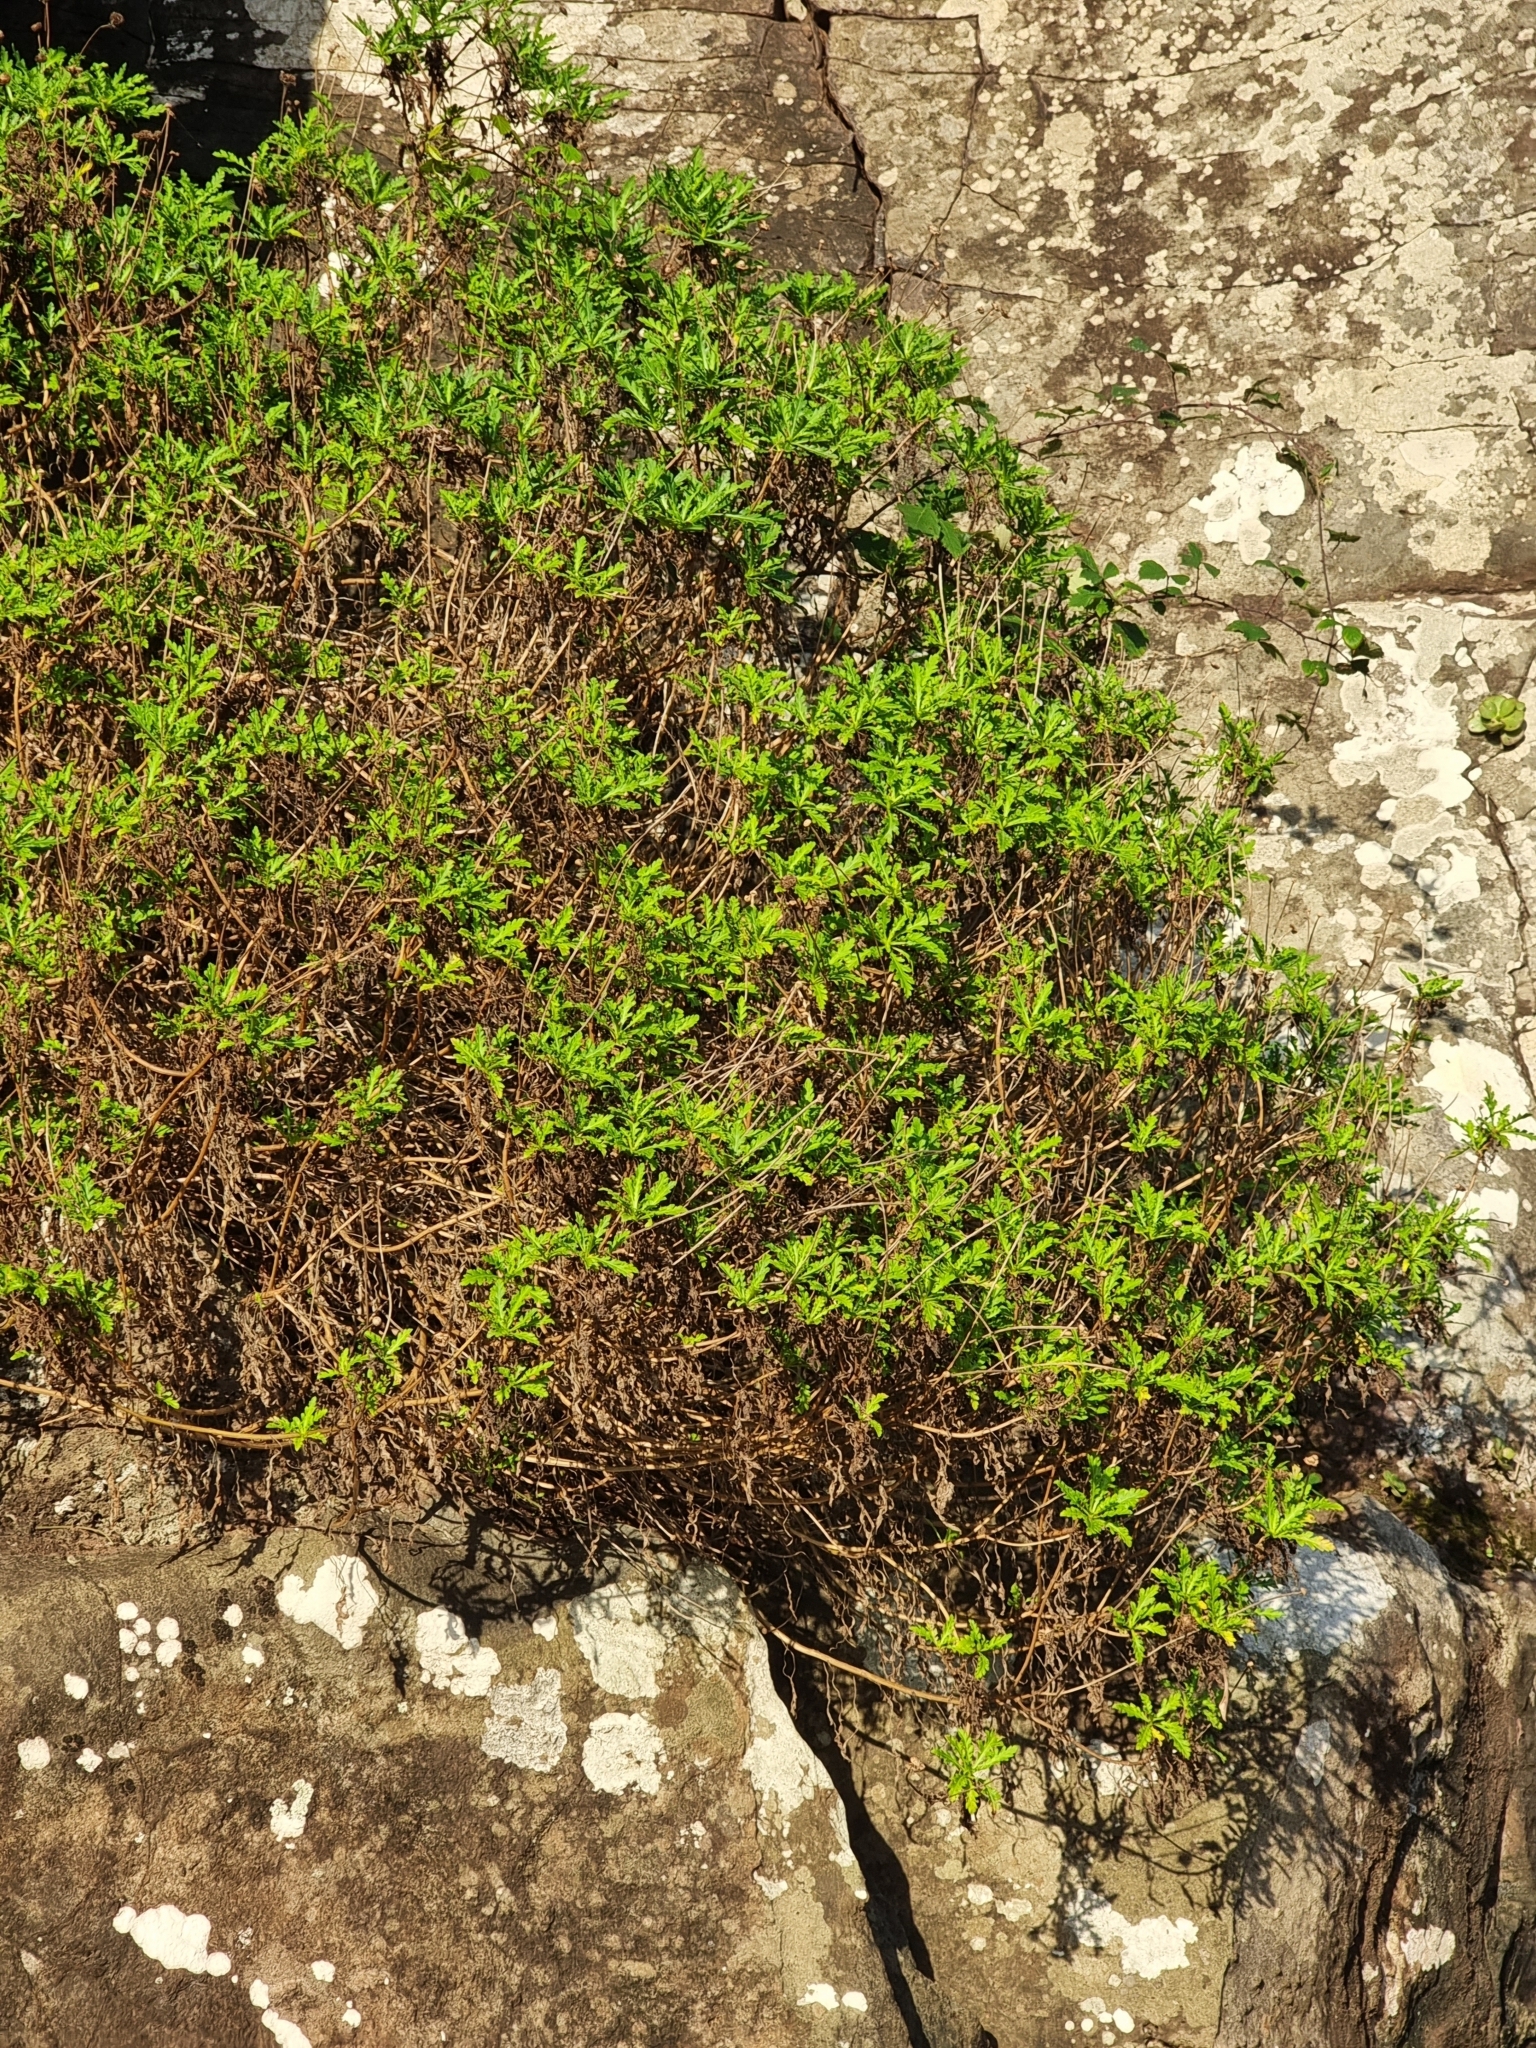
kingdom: Plantae
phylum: Tracheophyta
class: Magnoliopsida
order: Asterales
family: Asteraceae
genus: Argyranthemum
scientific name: Argyranthemum pinnatifidum
